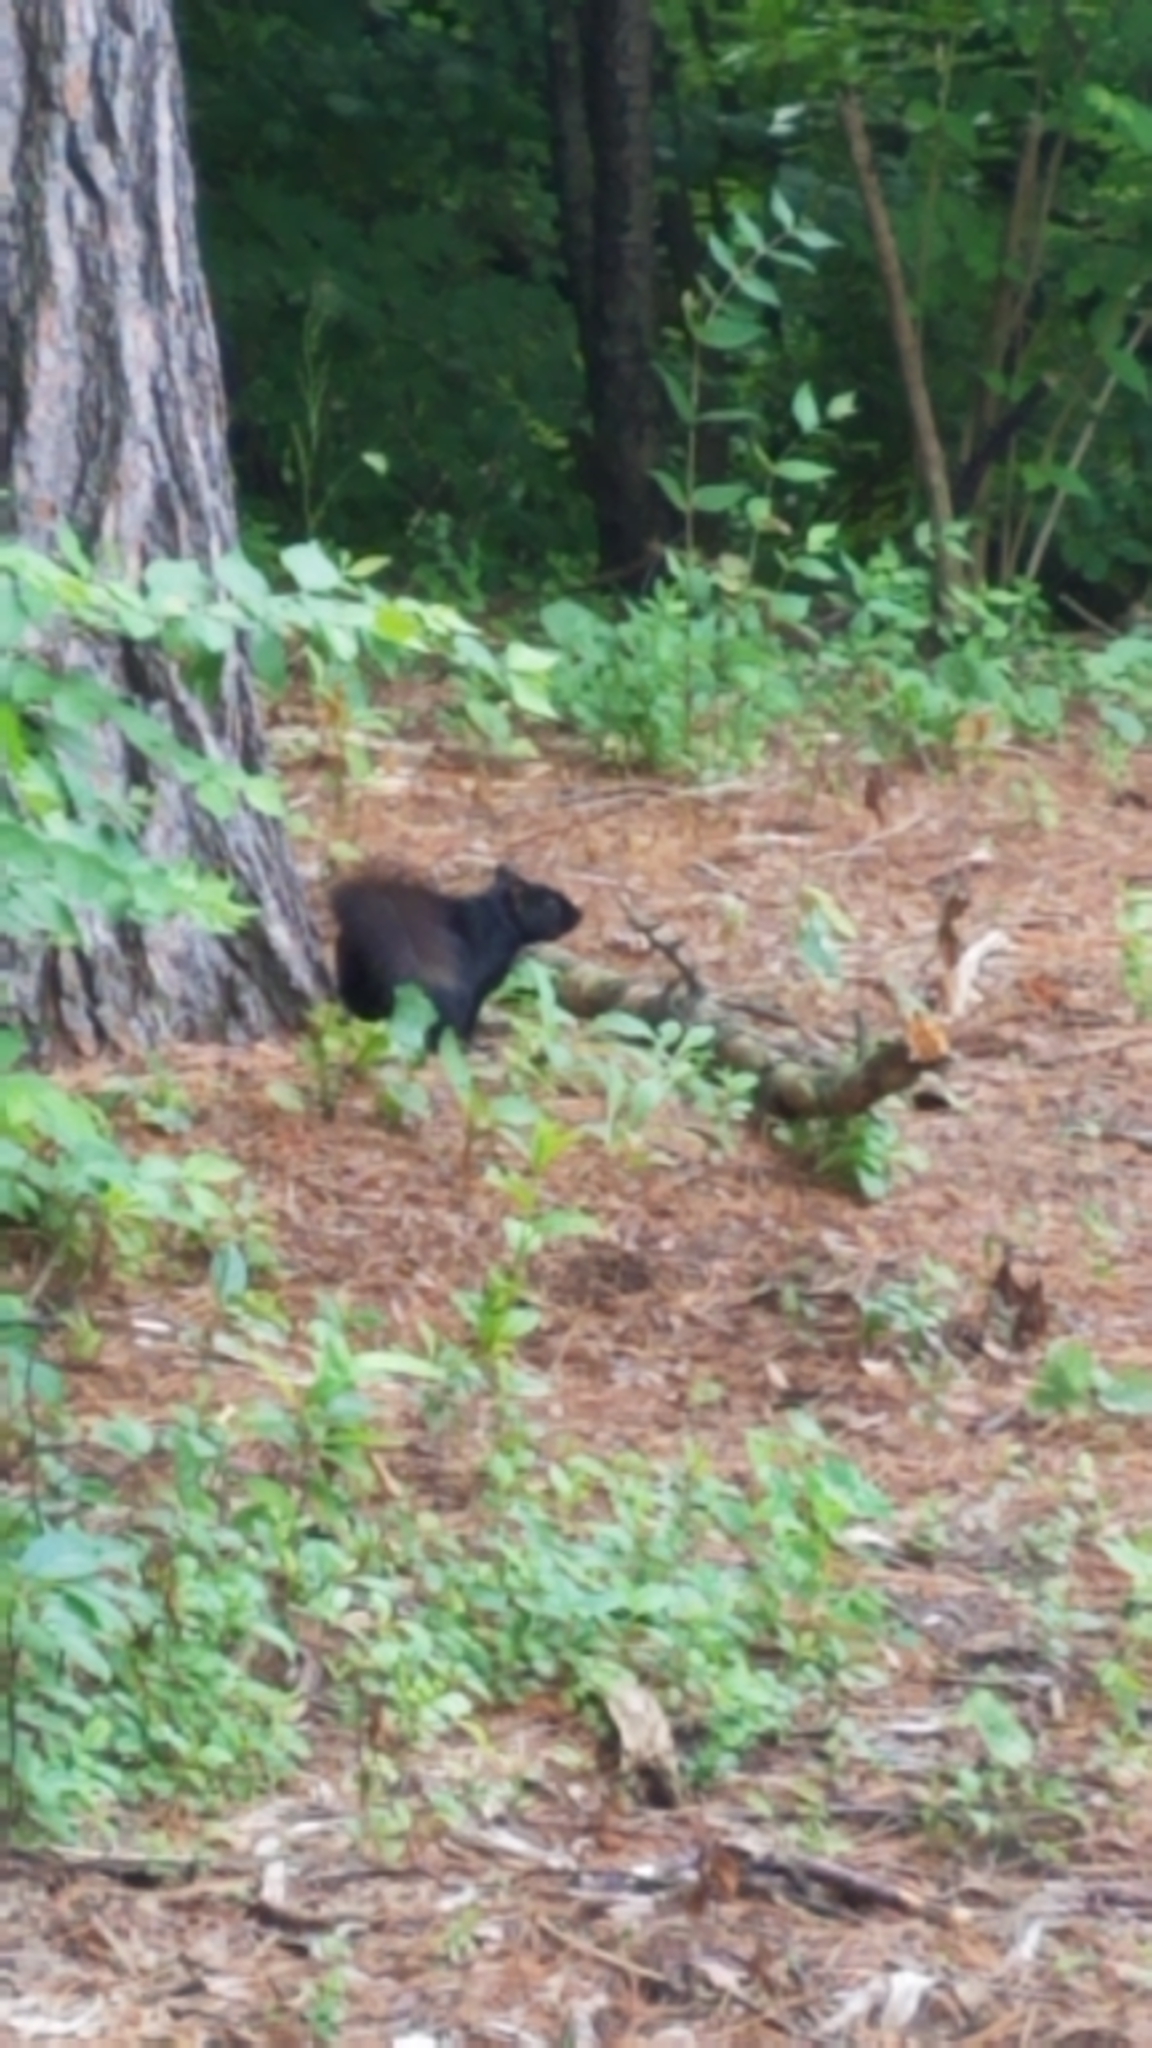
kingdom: Animalia
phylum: Chordata
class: Mammalia
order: Rodentia
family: Sciuridae
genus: Sciurus
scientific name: Sciurus carolinensis
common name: Eastern gray squirrel
